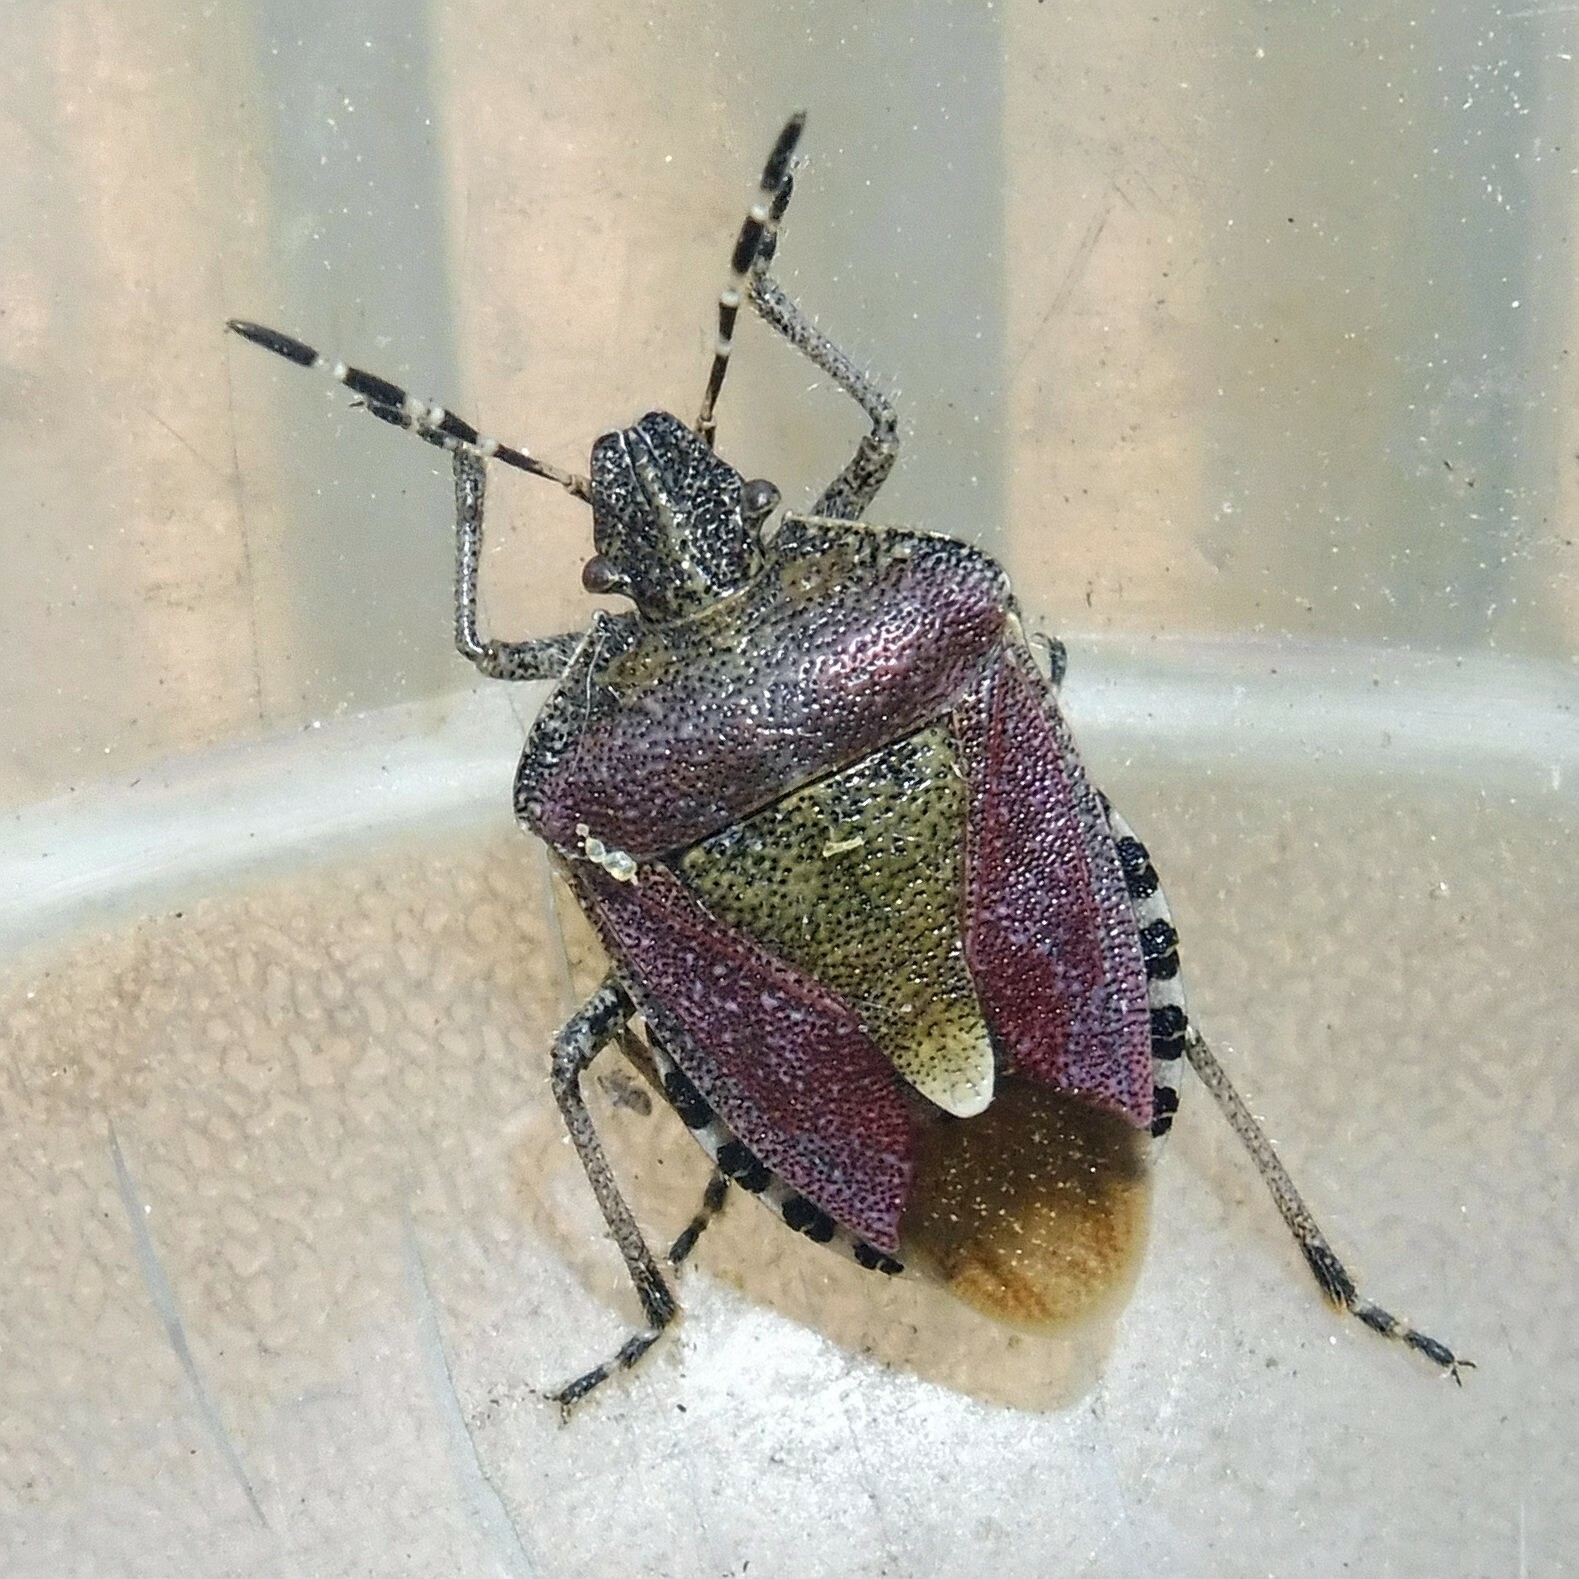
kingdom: Animalia
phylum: Arthropoda
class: Insecta
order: Hemiptera
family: Pentatomidae
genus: Dolycoris
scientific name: Dolycoris baccarum
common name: Sloe bug
